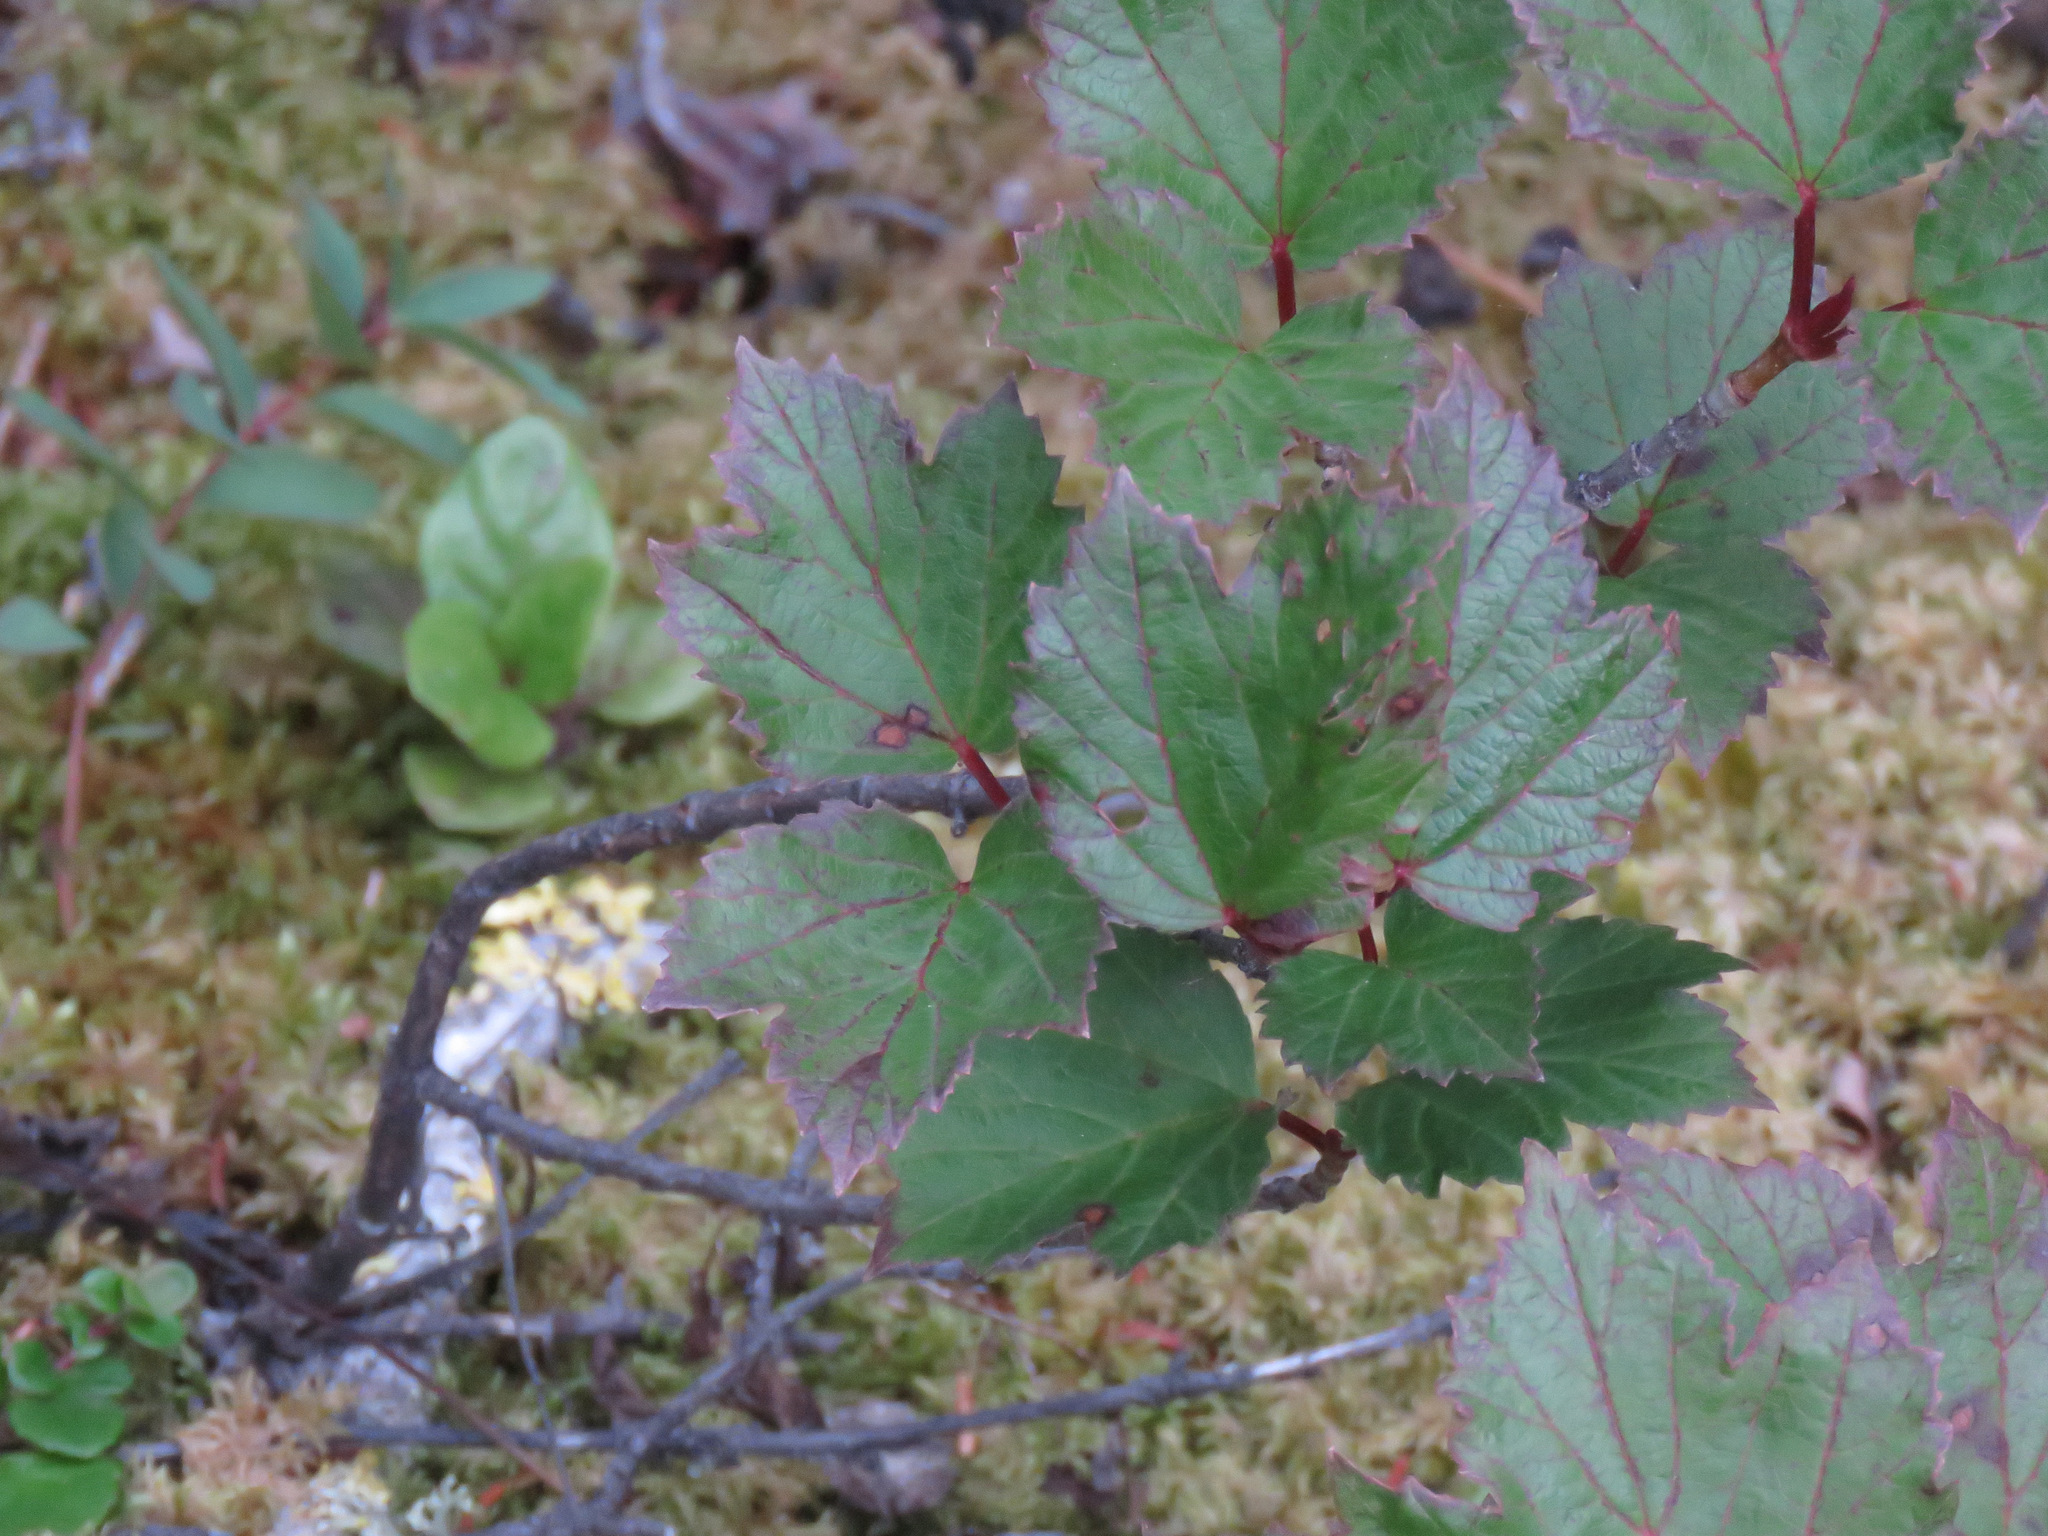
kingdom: Plantae
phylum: Tracheophyta
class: Magnoliopsida
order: Dipsacales
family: Viburnaceae
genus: Viburnum
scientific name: Viburnum edule
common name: Mooseberry
